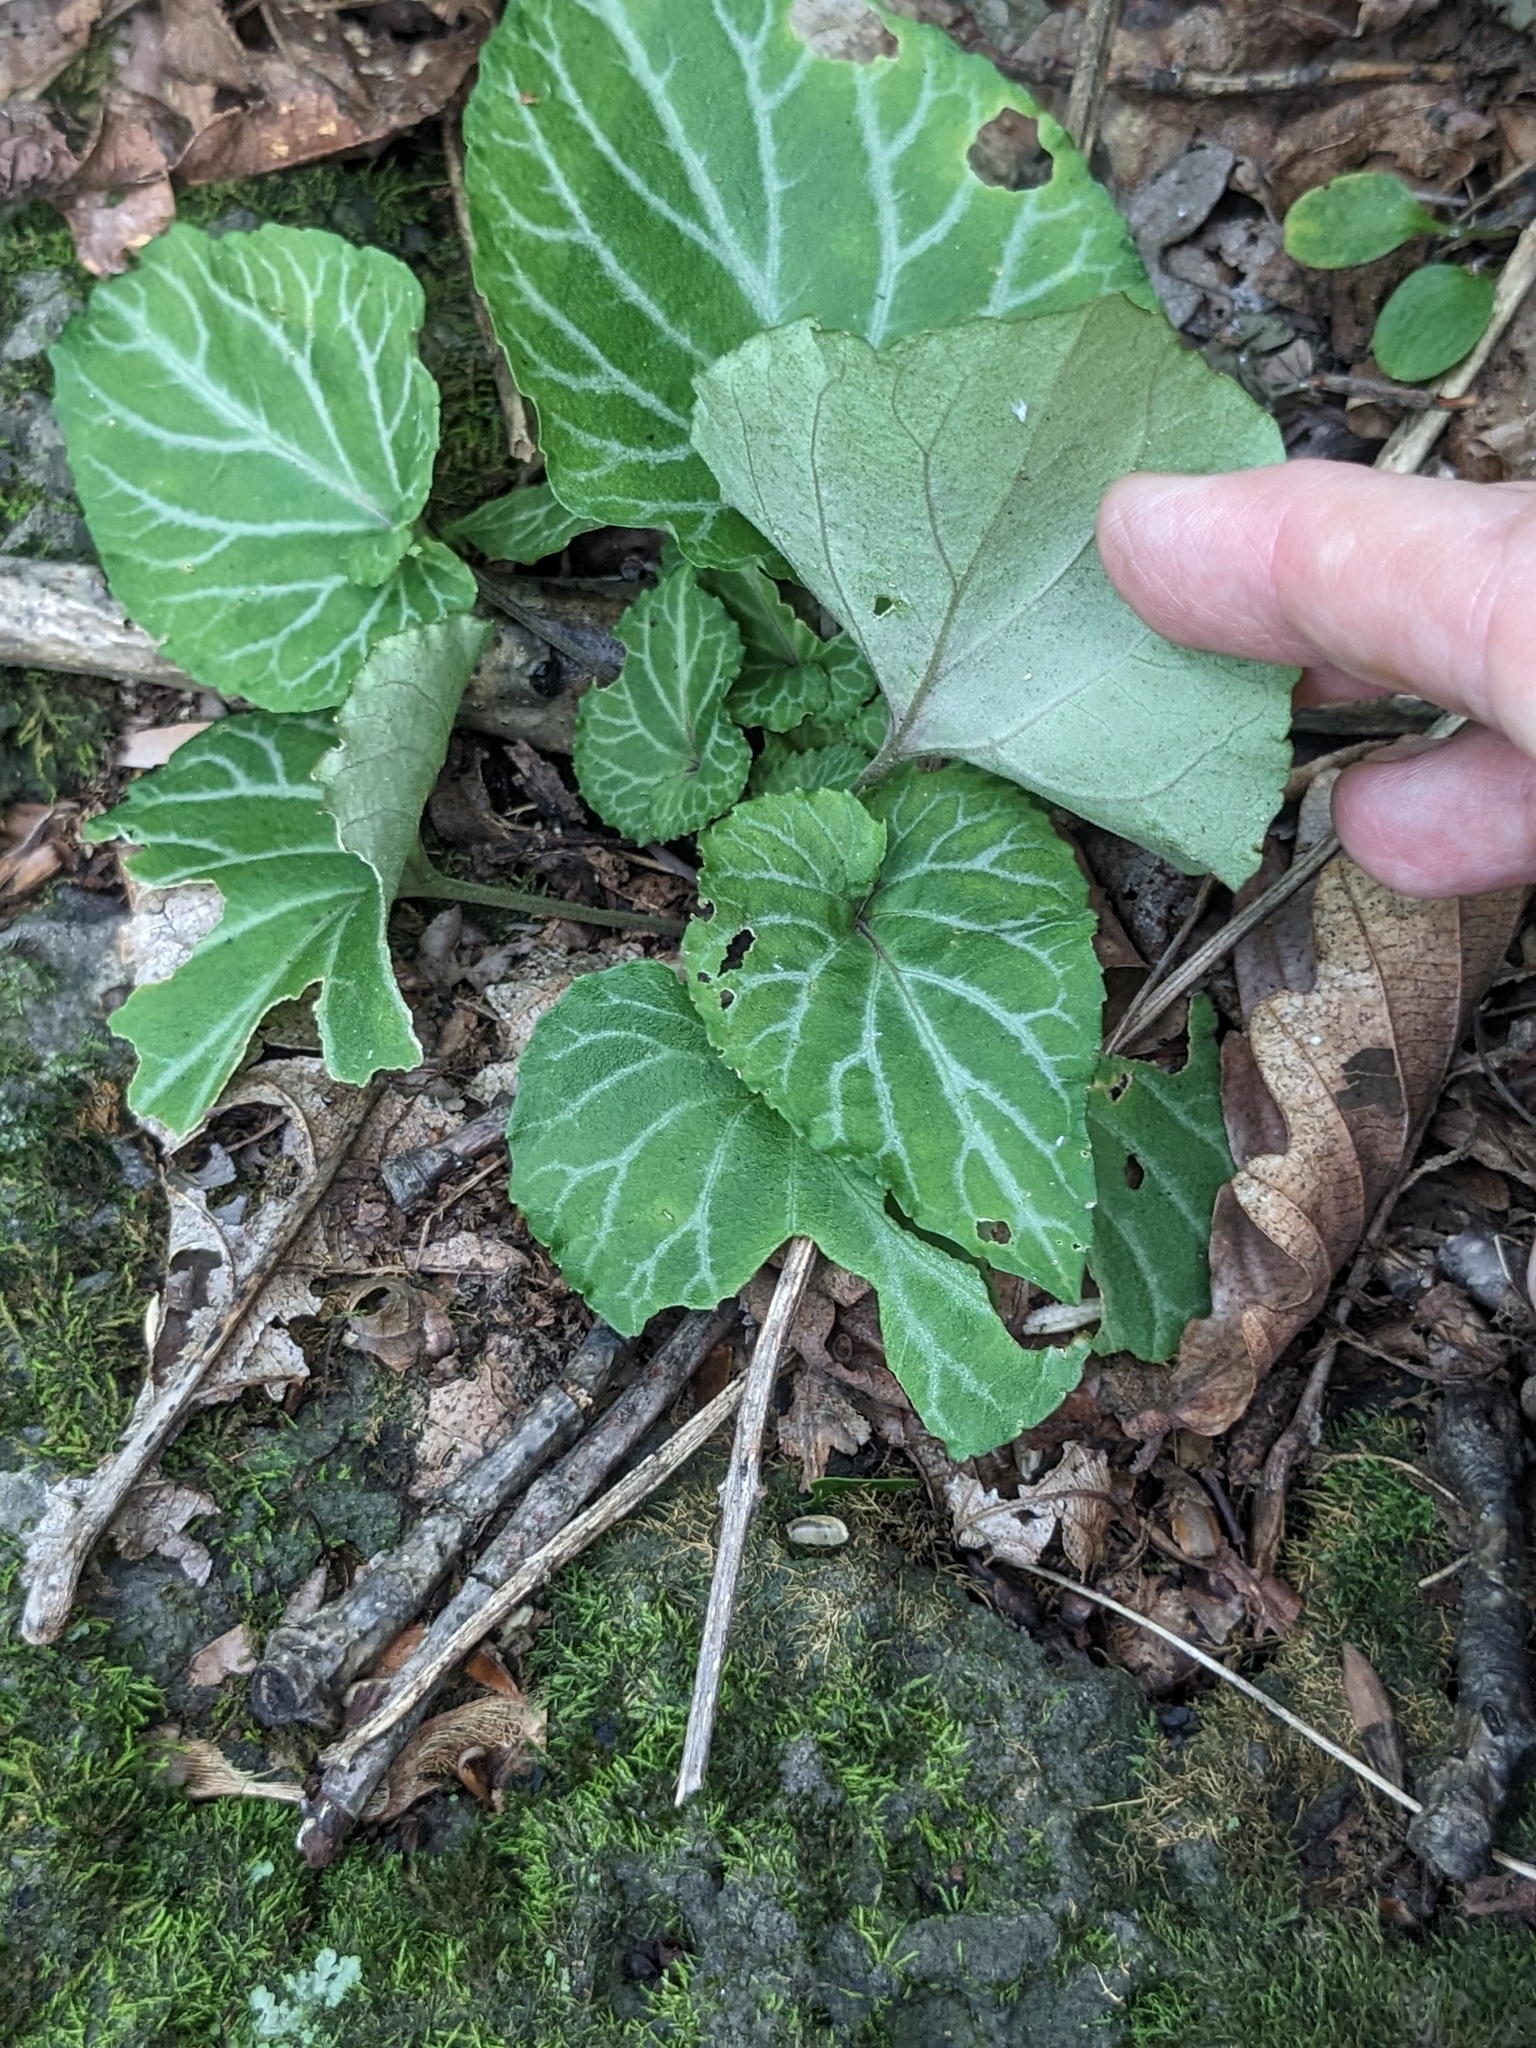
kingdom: Plantae
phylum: Tracheophyta
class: Magnoliopsida
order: Malpighiales
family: Violaceae
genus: Viola
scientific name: Viola variegata
